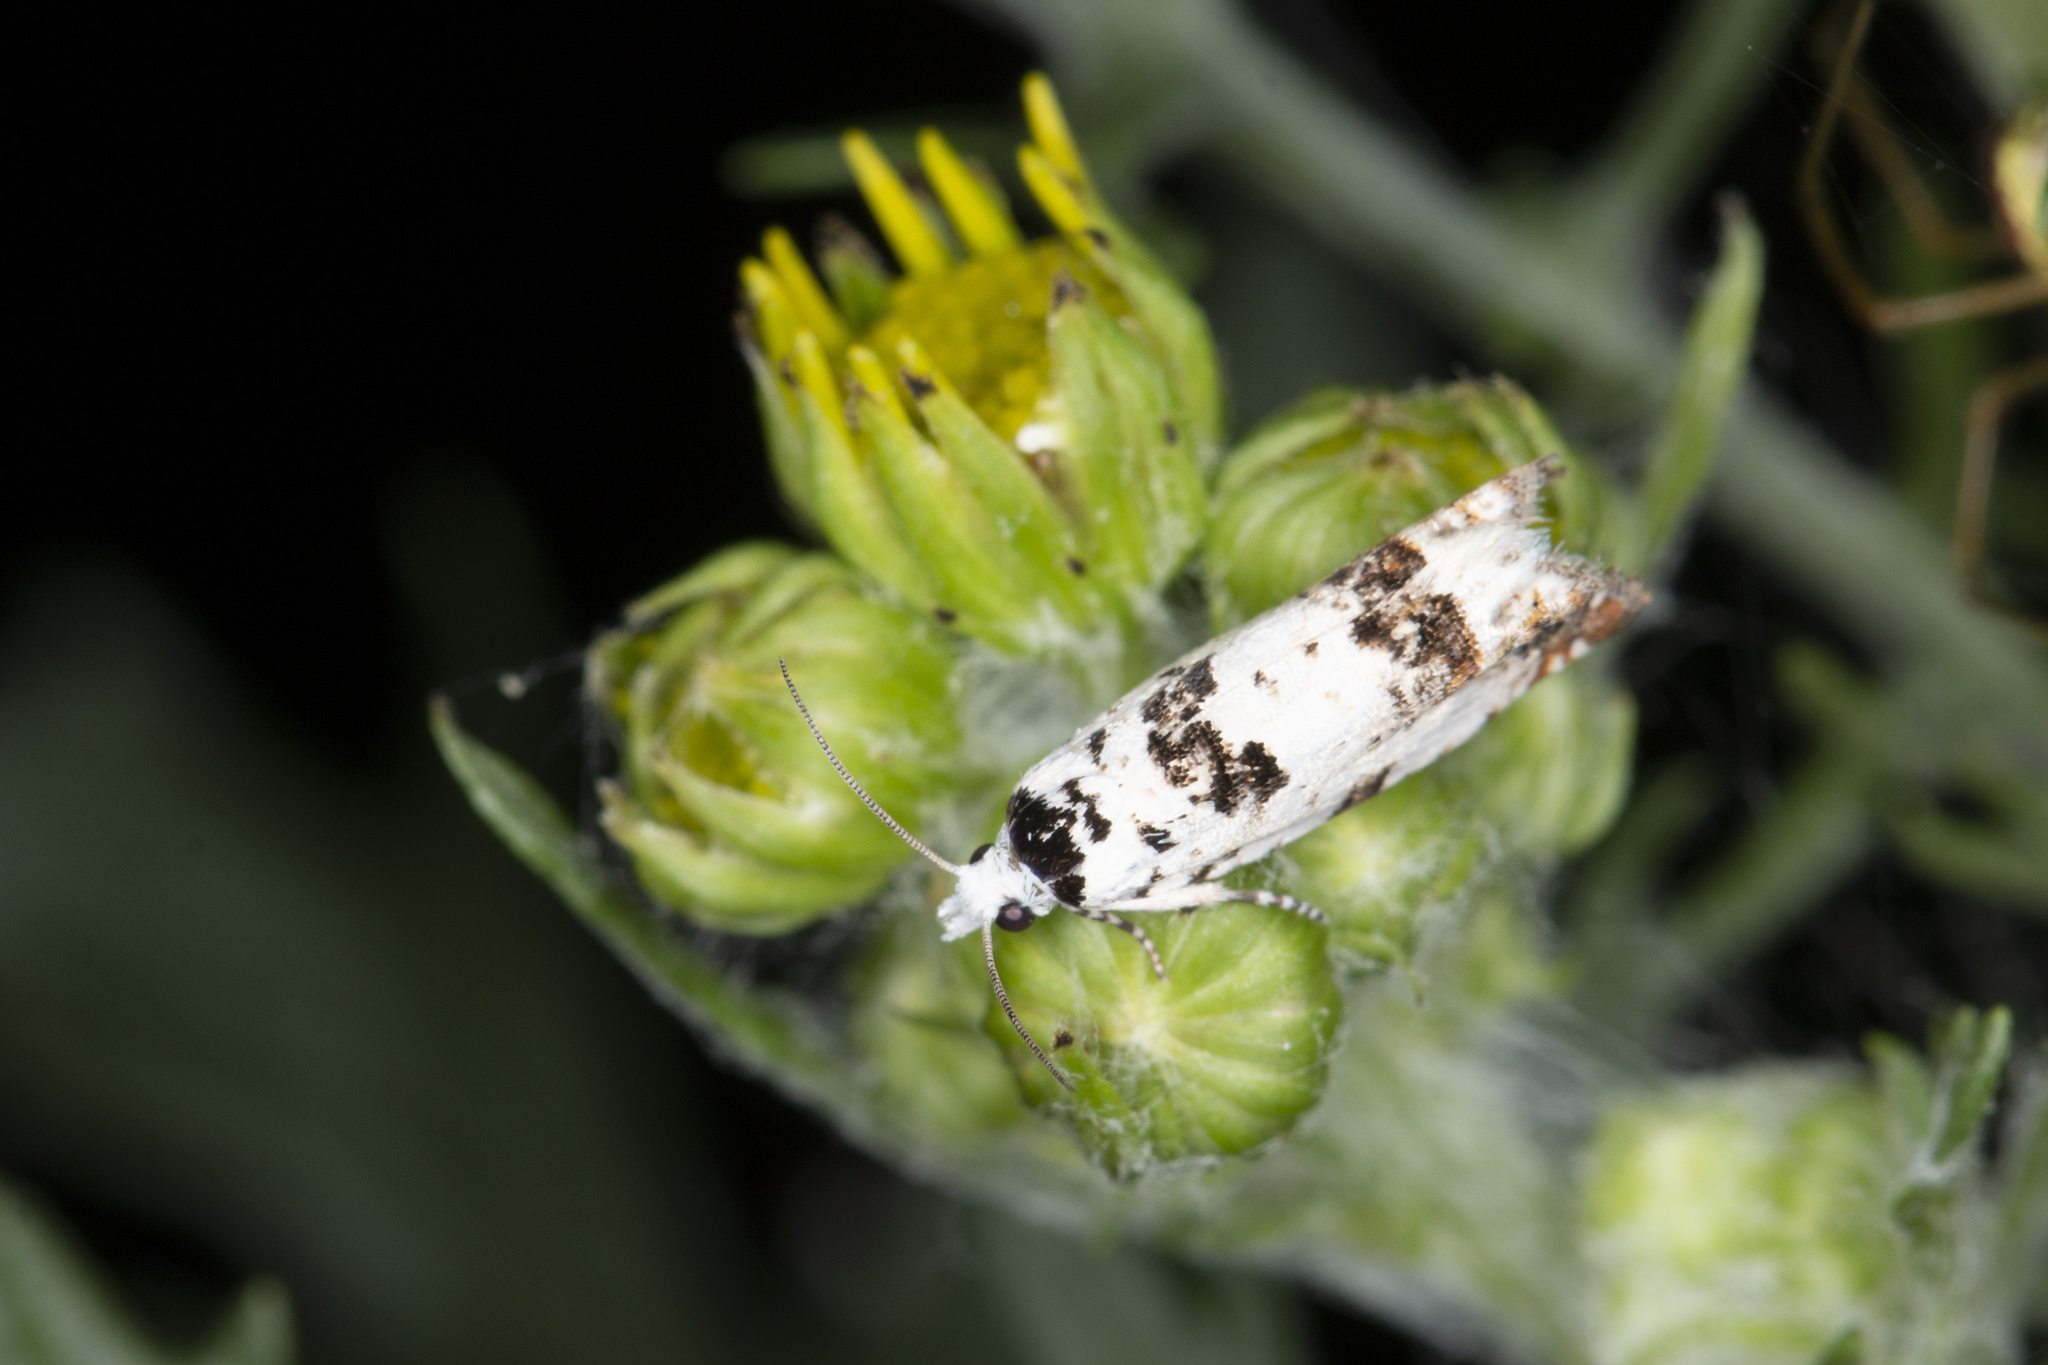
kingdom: Animalia
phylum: Arthropoda
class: Insecta
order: Lepidoptera
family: Tortricidae
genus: Eucosma
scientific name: Eucosma campoliliana
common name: Marbled bell
